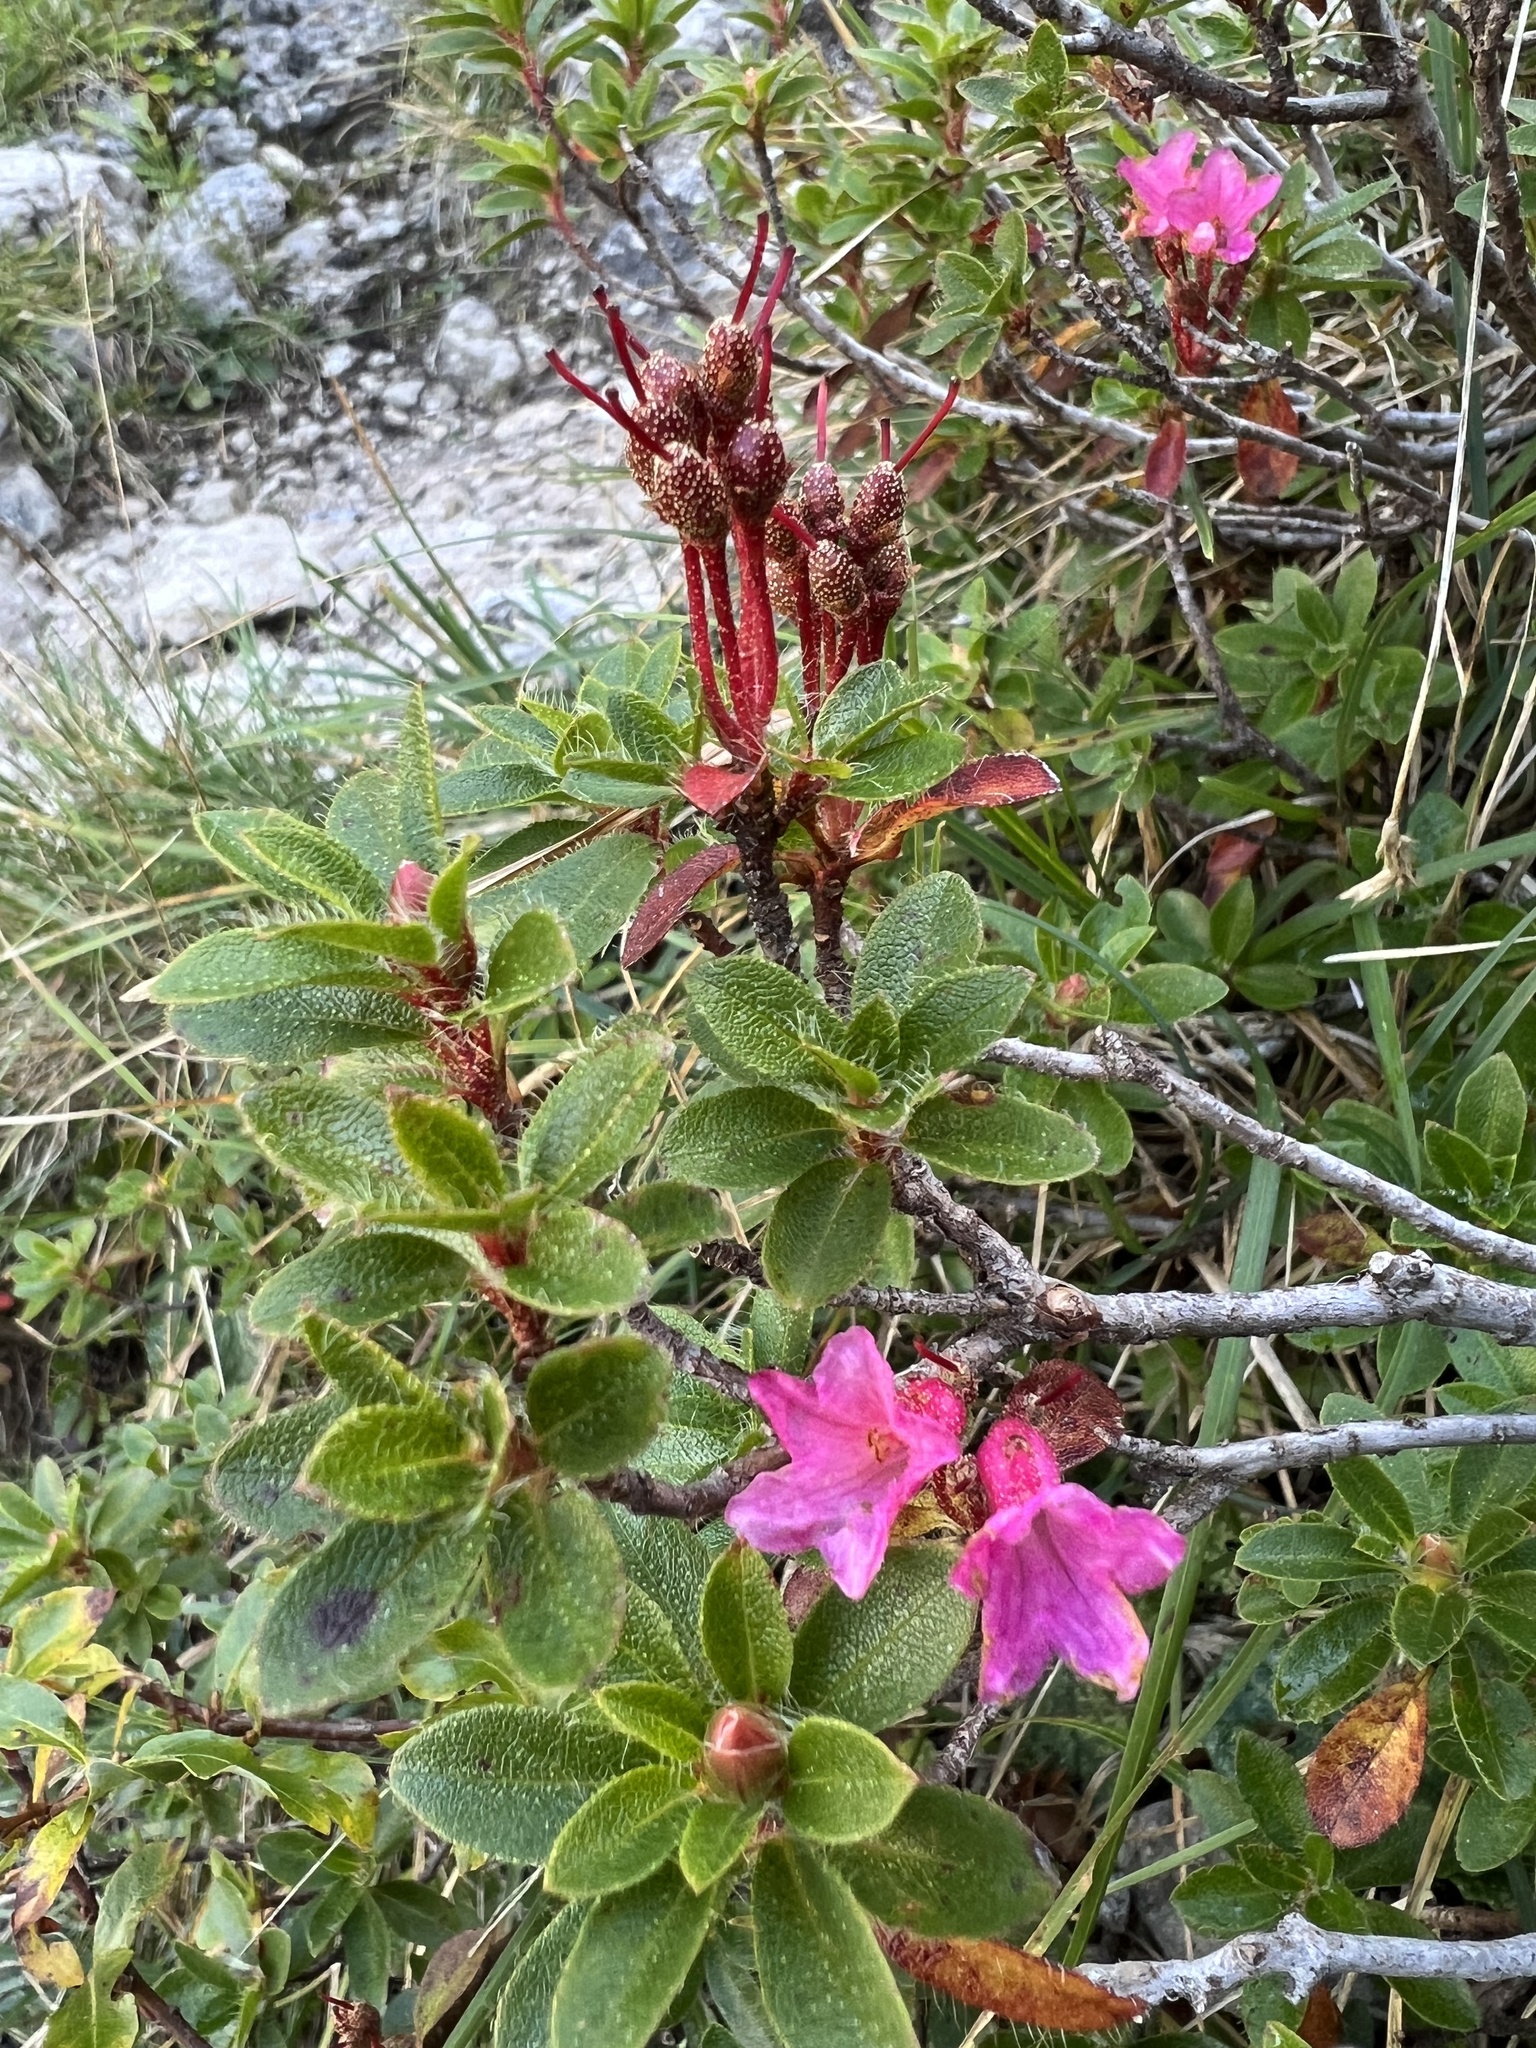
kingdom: Plantae
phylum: Tracheophyta
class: Magnoliopsida
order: Ericales
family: Ericaceae
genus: Rhododendron
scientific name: Rhododendron hirsutum
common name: Hairy alpenrose
